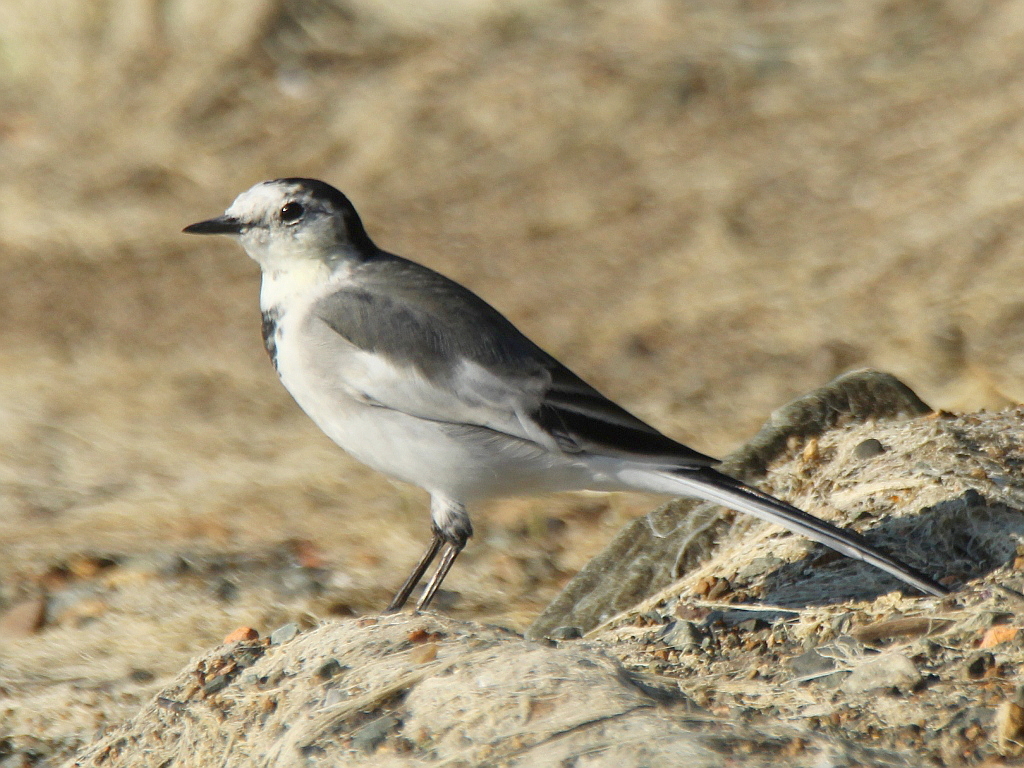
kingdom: Animalia
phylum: Chordata
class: Aves
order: Passeriformes
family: Motacillidae
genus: Motacilla
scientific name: Motacilla alba
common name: White wagtail
